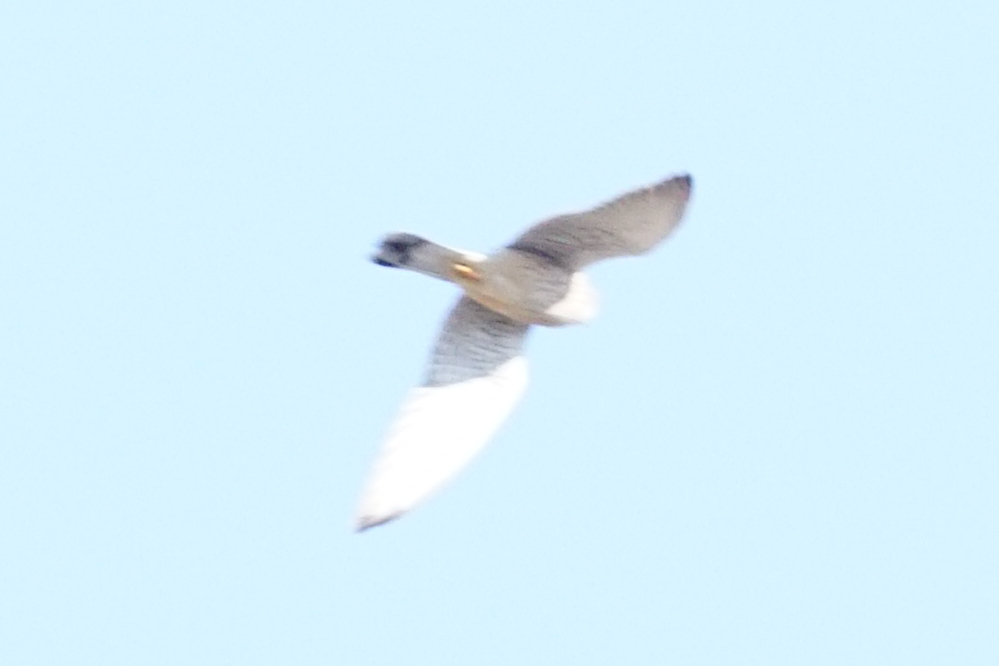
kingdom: Animalia
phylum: Chordata
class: Aves
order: Falconiformes
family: Falconidae
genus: Falco
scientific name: Falco tinnunculus
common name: Common kestrel
